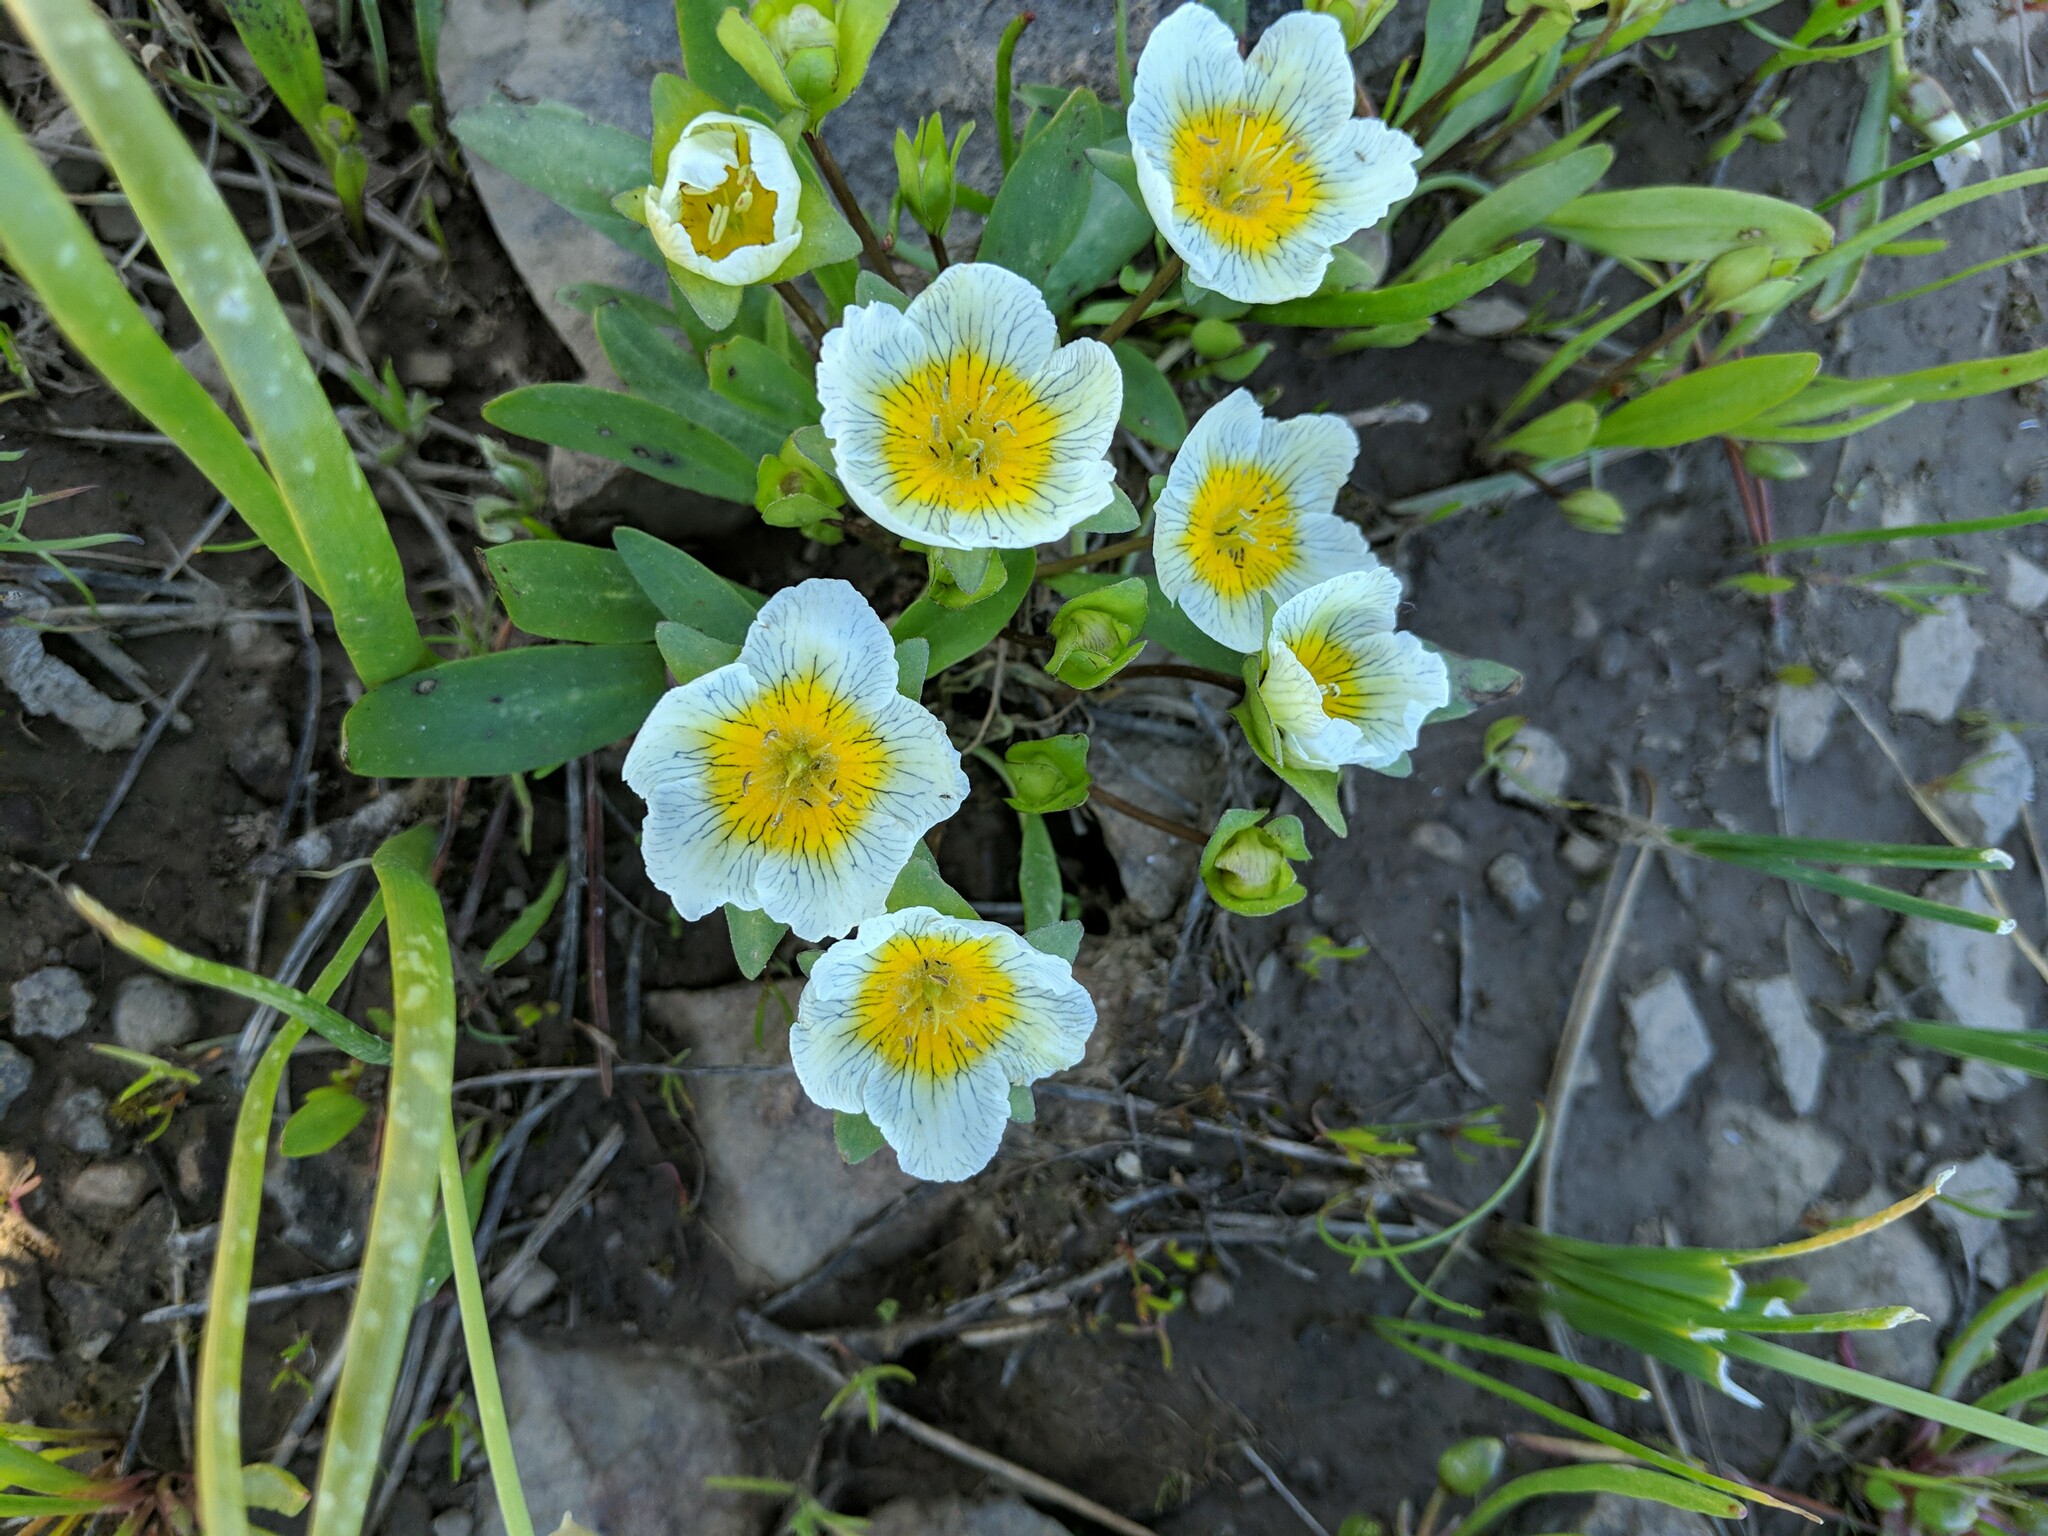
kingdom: Plantae
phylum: Tracheophyta
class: Magnoliopsida
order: Boraginales
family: Hydrophyllaceae
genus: Hesperochiron
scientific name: Hesperochiron pumilus
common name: Dwarf hesperochiron
